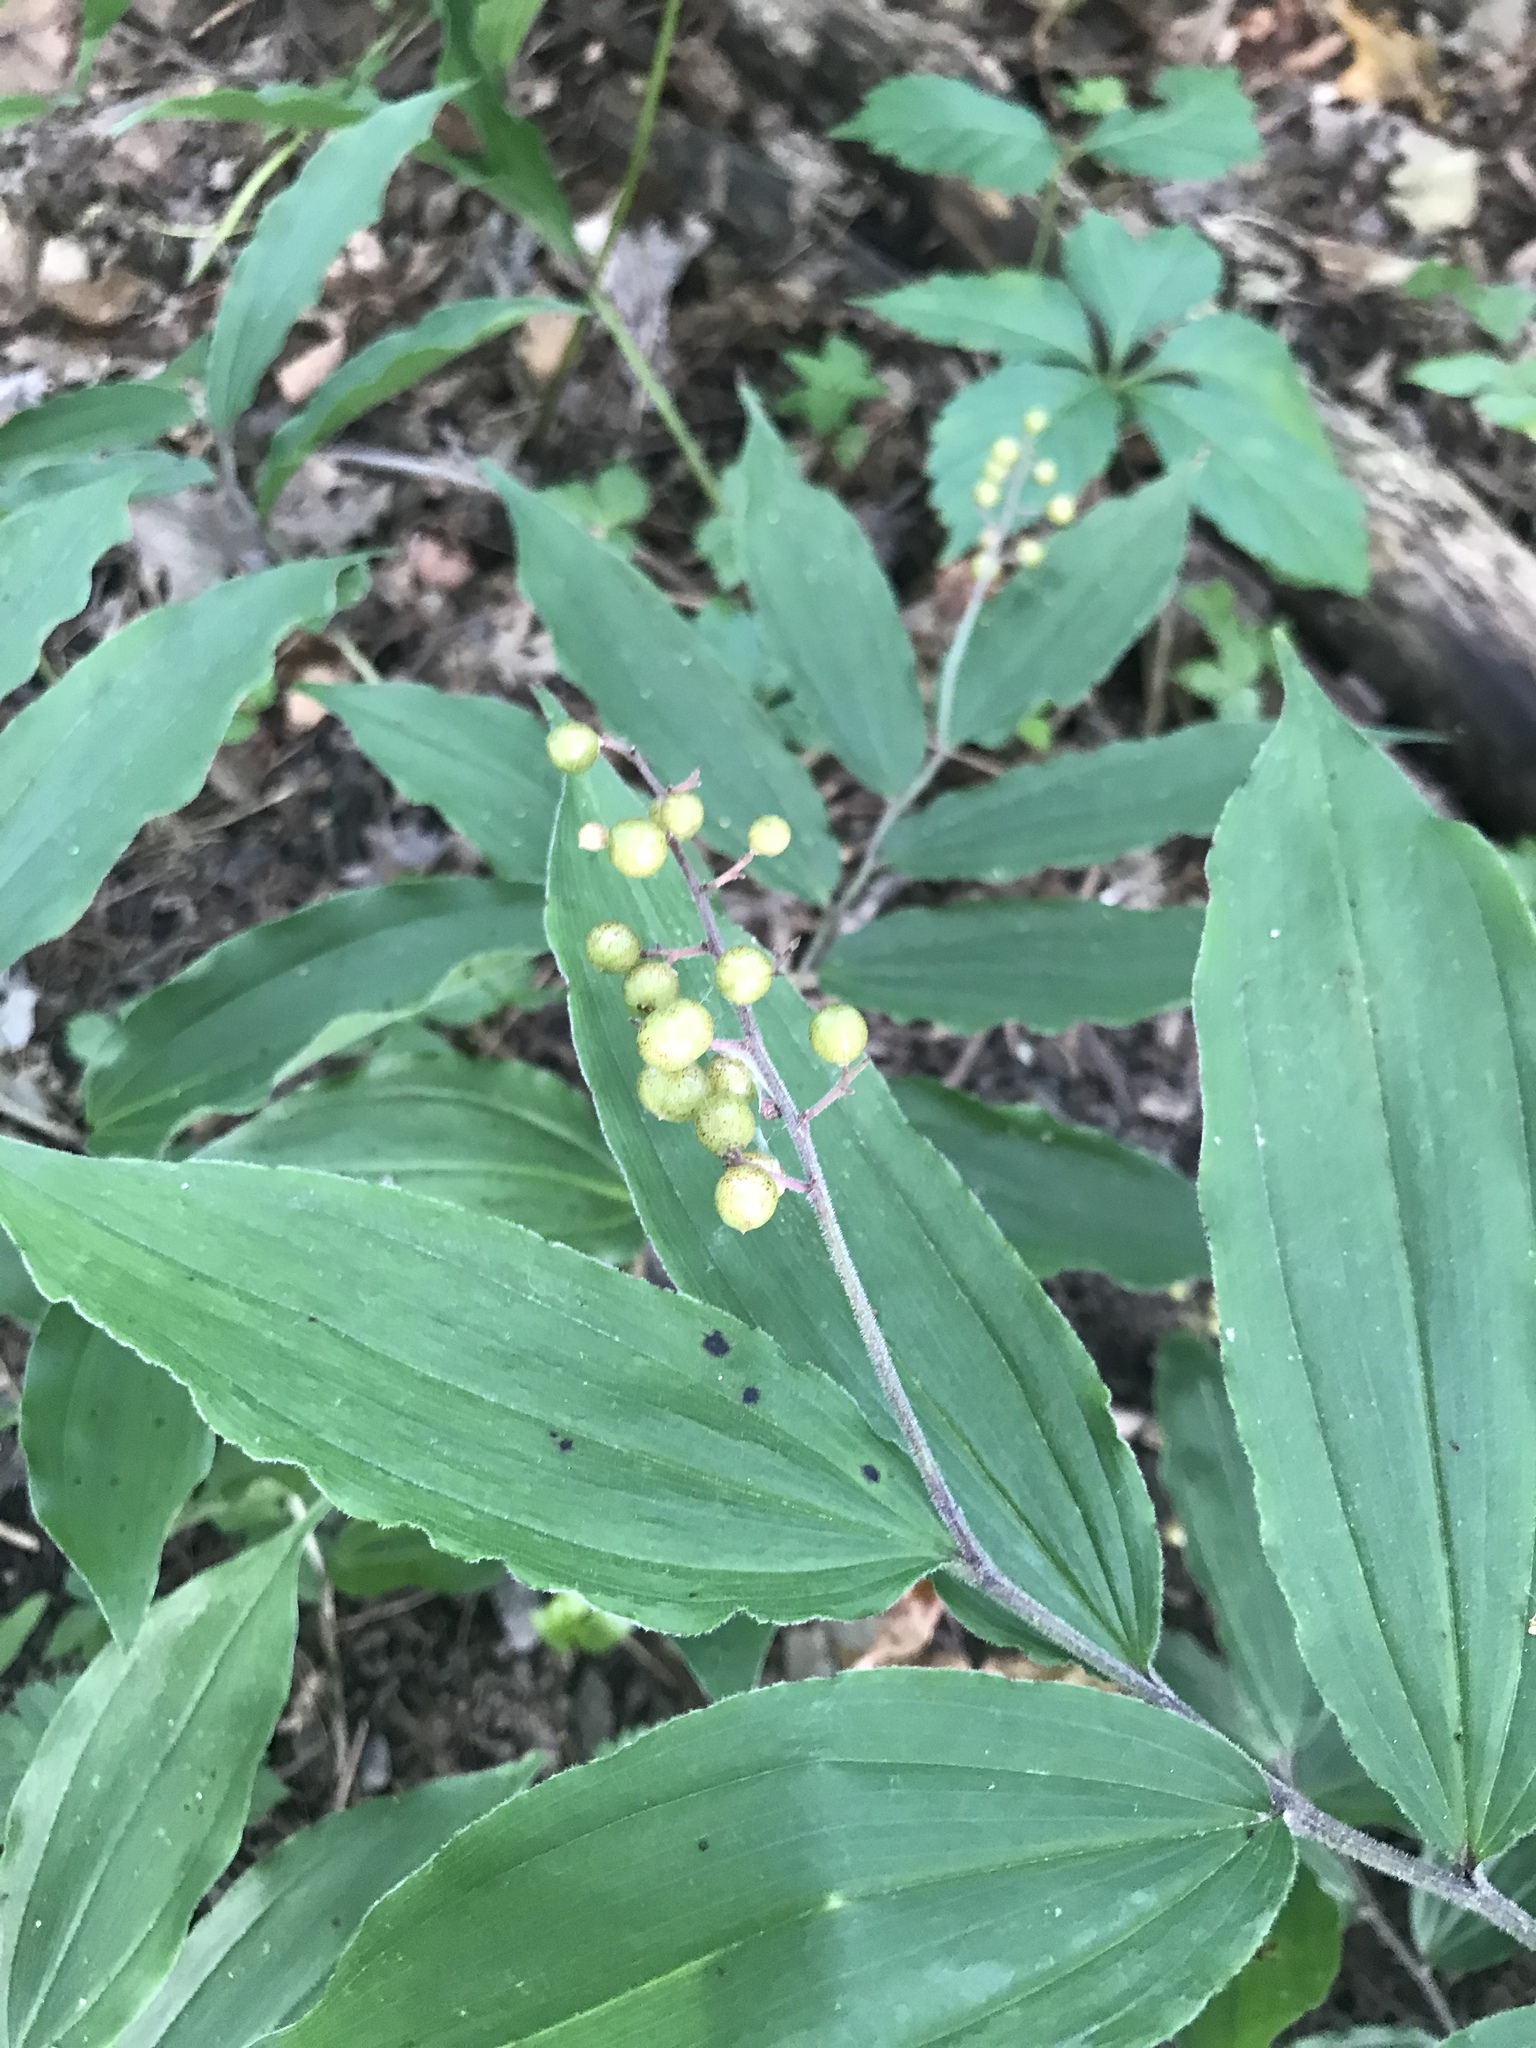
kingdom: Plantae
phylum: Tracheophyta
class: Liliopsida
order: Asparagales
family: Asparagaceae
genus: Maianthemum
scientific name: Maianthemum racemosum
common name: False spikenard
